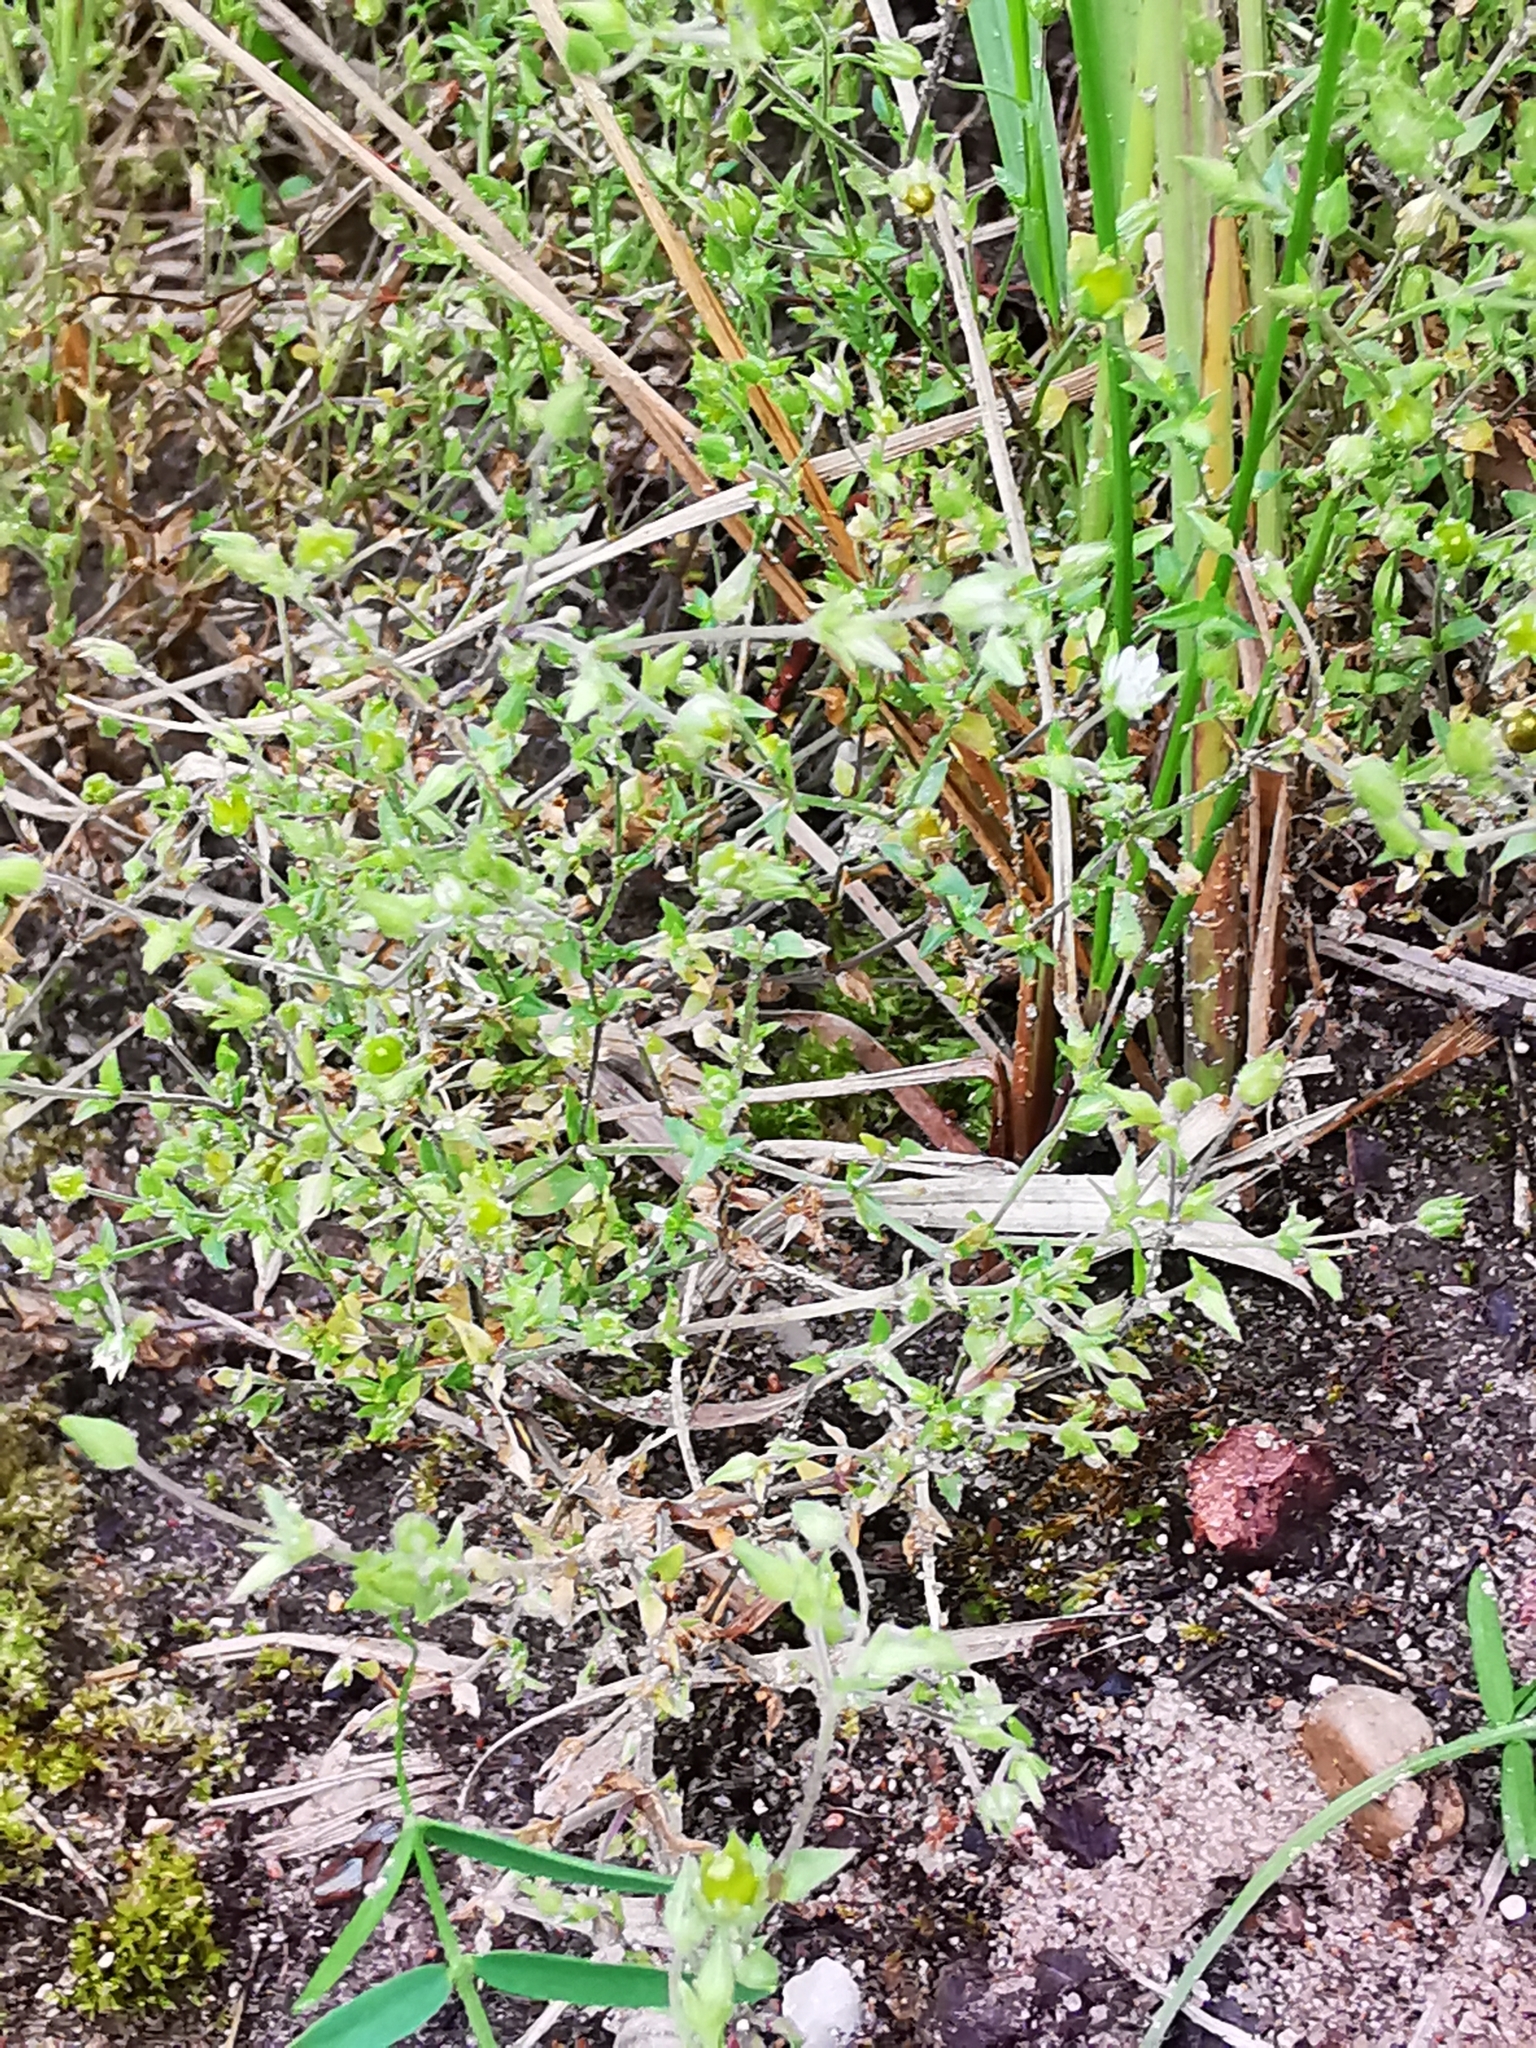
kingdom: Plantae
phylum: Tracheophyta
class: Magnoliopsida
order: Caryophyllales
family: Caryophyllaceae
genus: Arenaria
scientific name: Arenaria serpyllifolia
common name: Thyme-leaved sandwort
